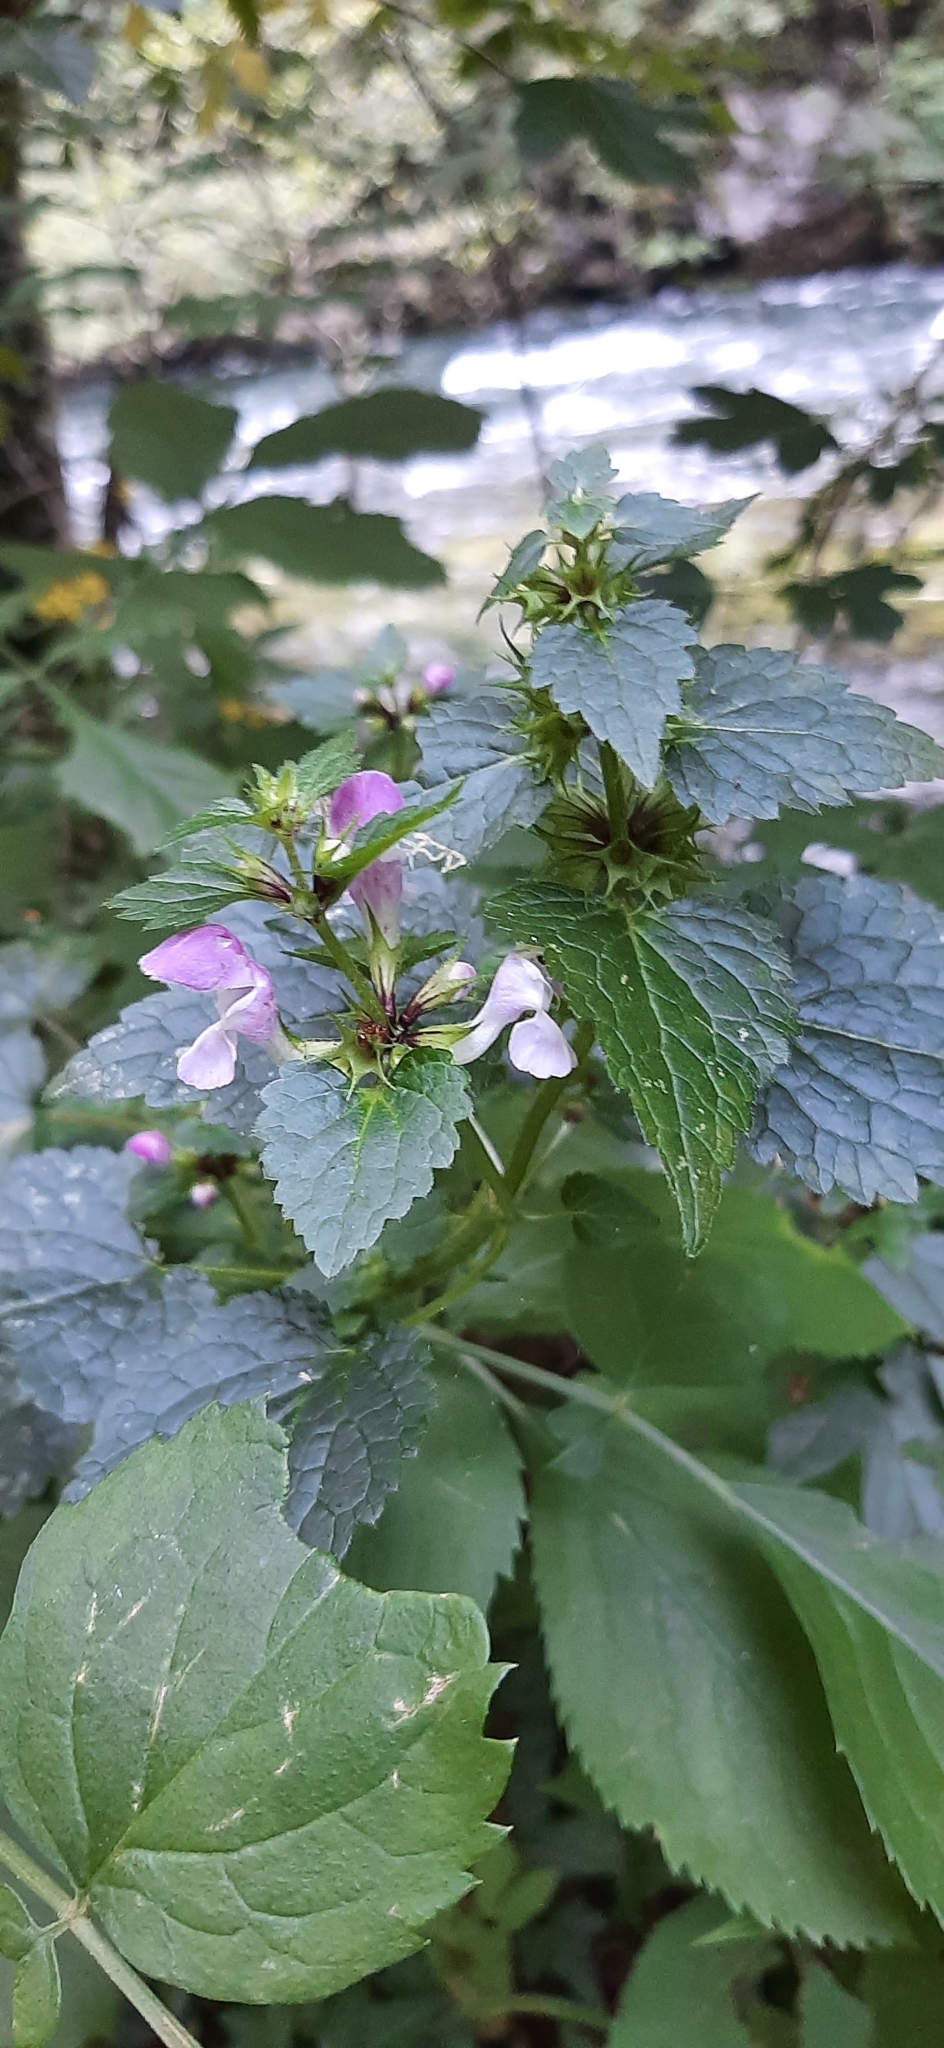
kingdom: Plantae
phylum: Tracheophyta
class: Magnoliopsida
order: Lamiales
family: Lamiaceae
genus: Lamium
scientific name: Lamium maculatum
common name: Spotted dead-nettle
